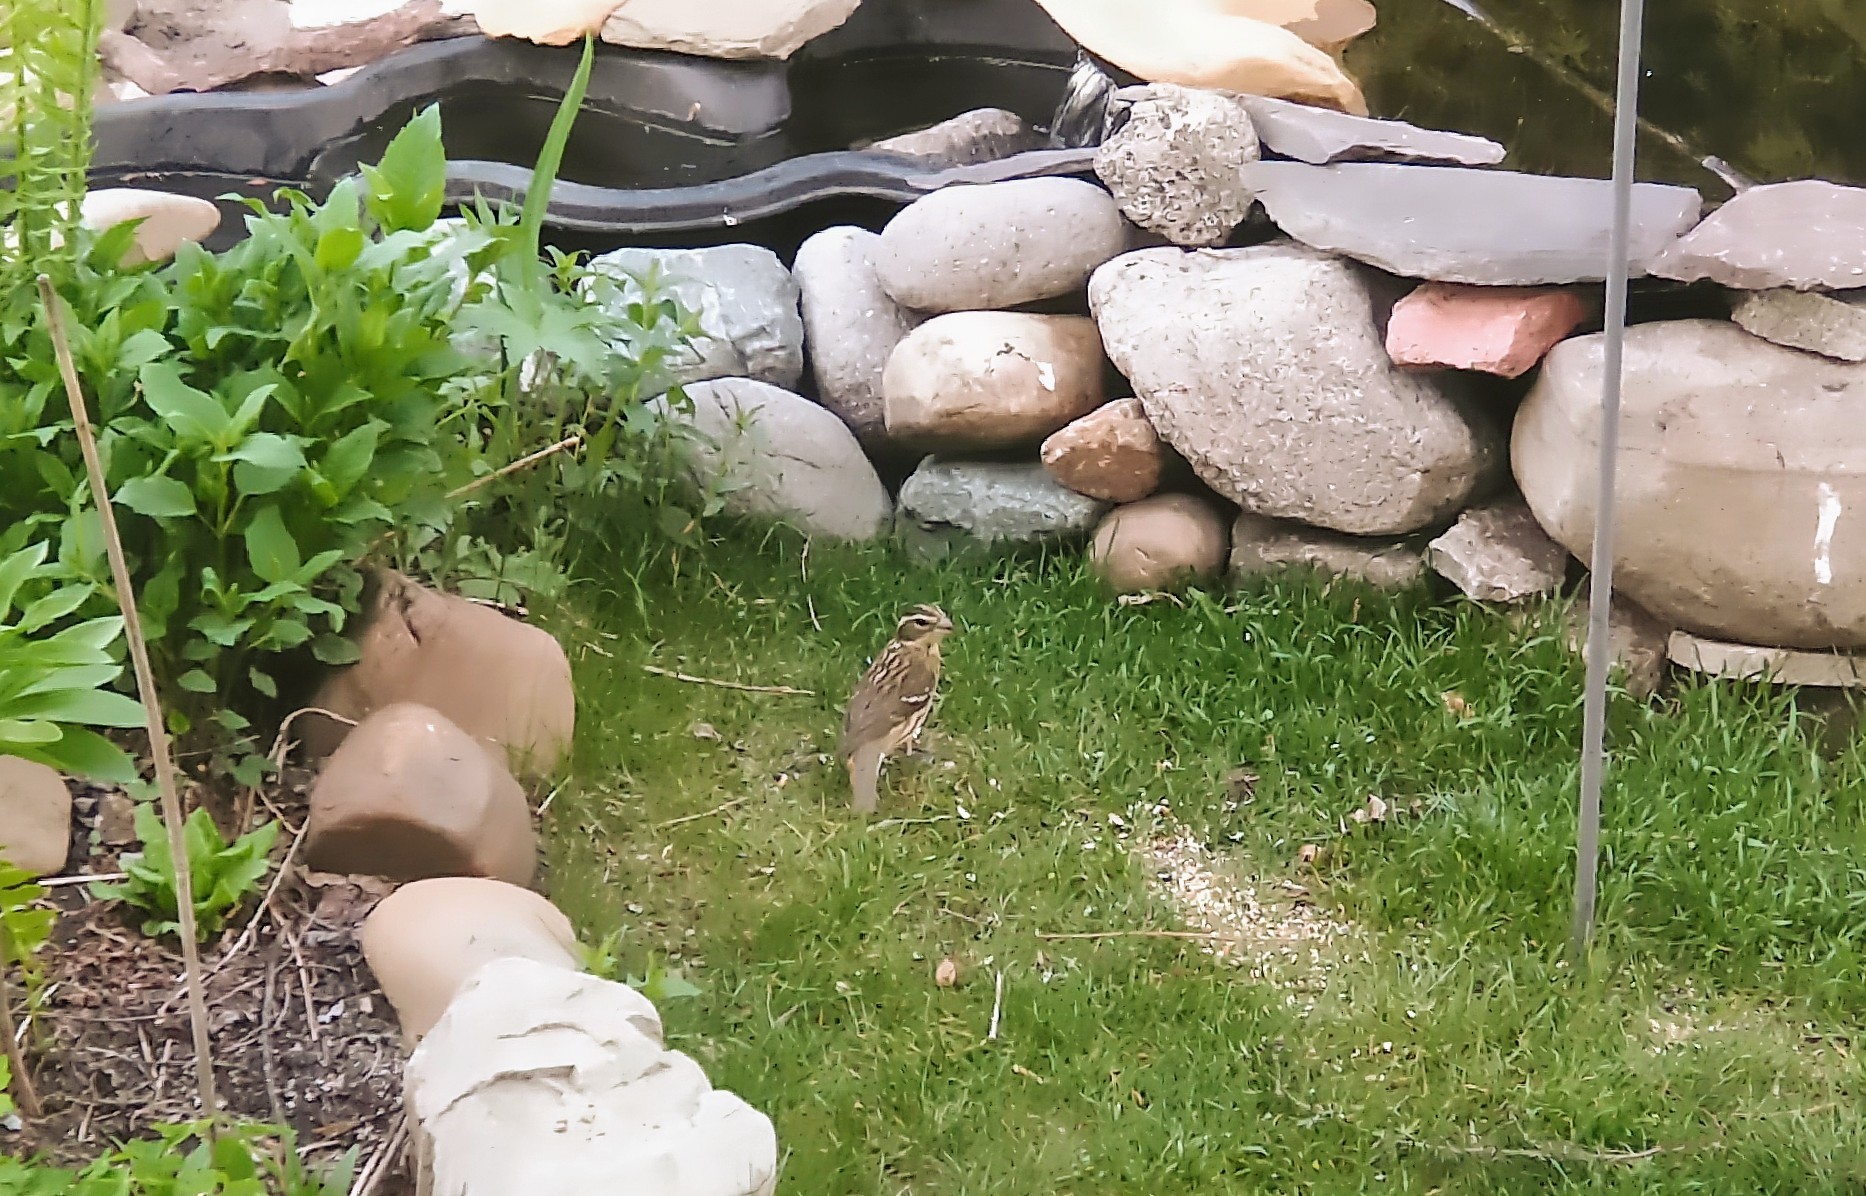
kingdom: Animalia
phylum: Chordata
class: Aves
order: Passeriformes
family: Cardinalidae
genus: Pheucticus
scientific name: Pheucticus ludovicianus
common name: Rose-breasted grosbeak
